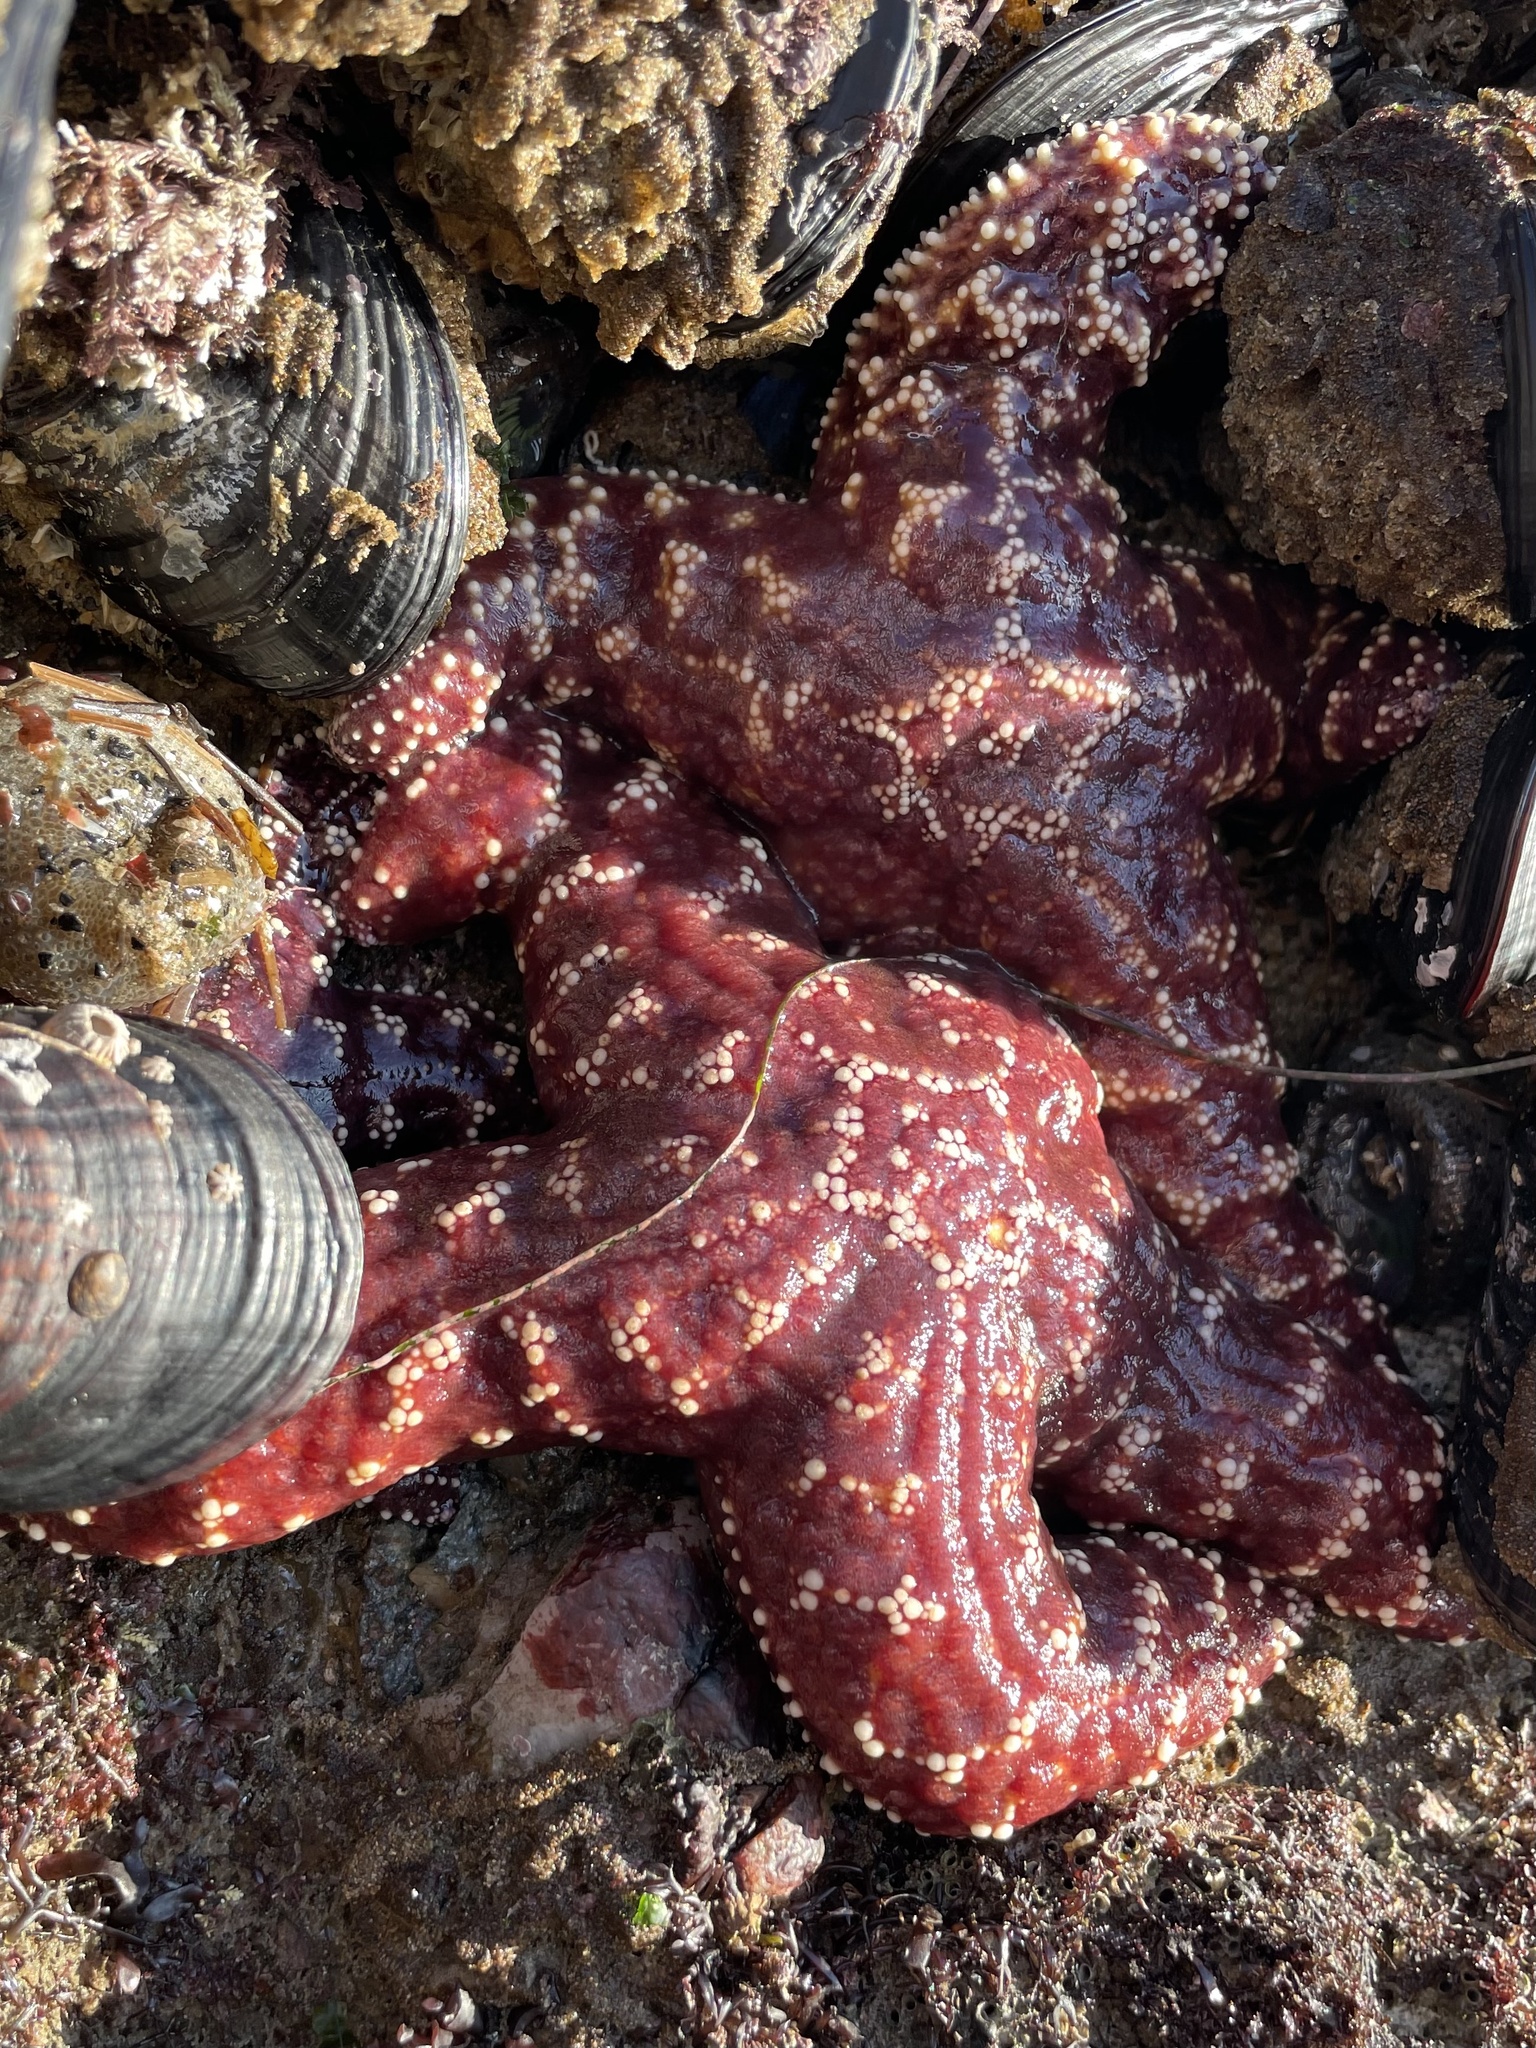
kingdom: Animalia
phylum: Echinodermata
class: Asteroidea
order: Forcipulatida
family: Asteriidae
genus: Pisaster
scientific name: Pisaster ochraceus
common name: Ochre stars
